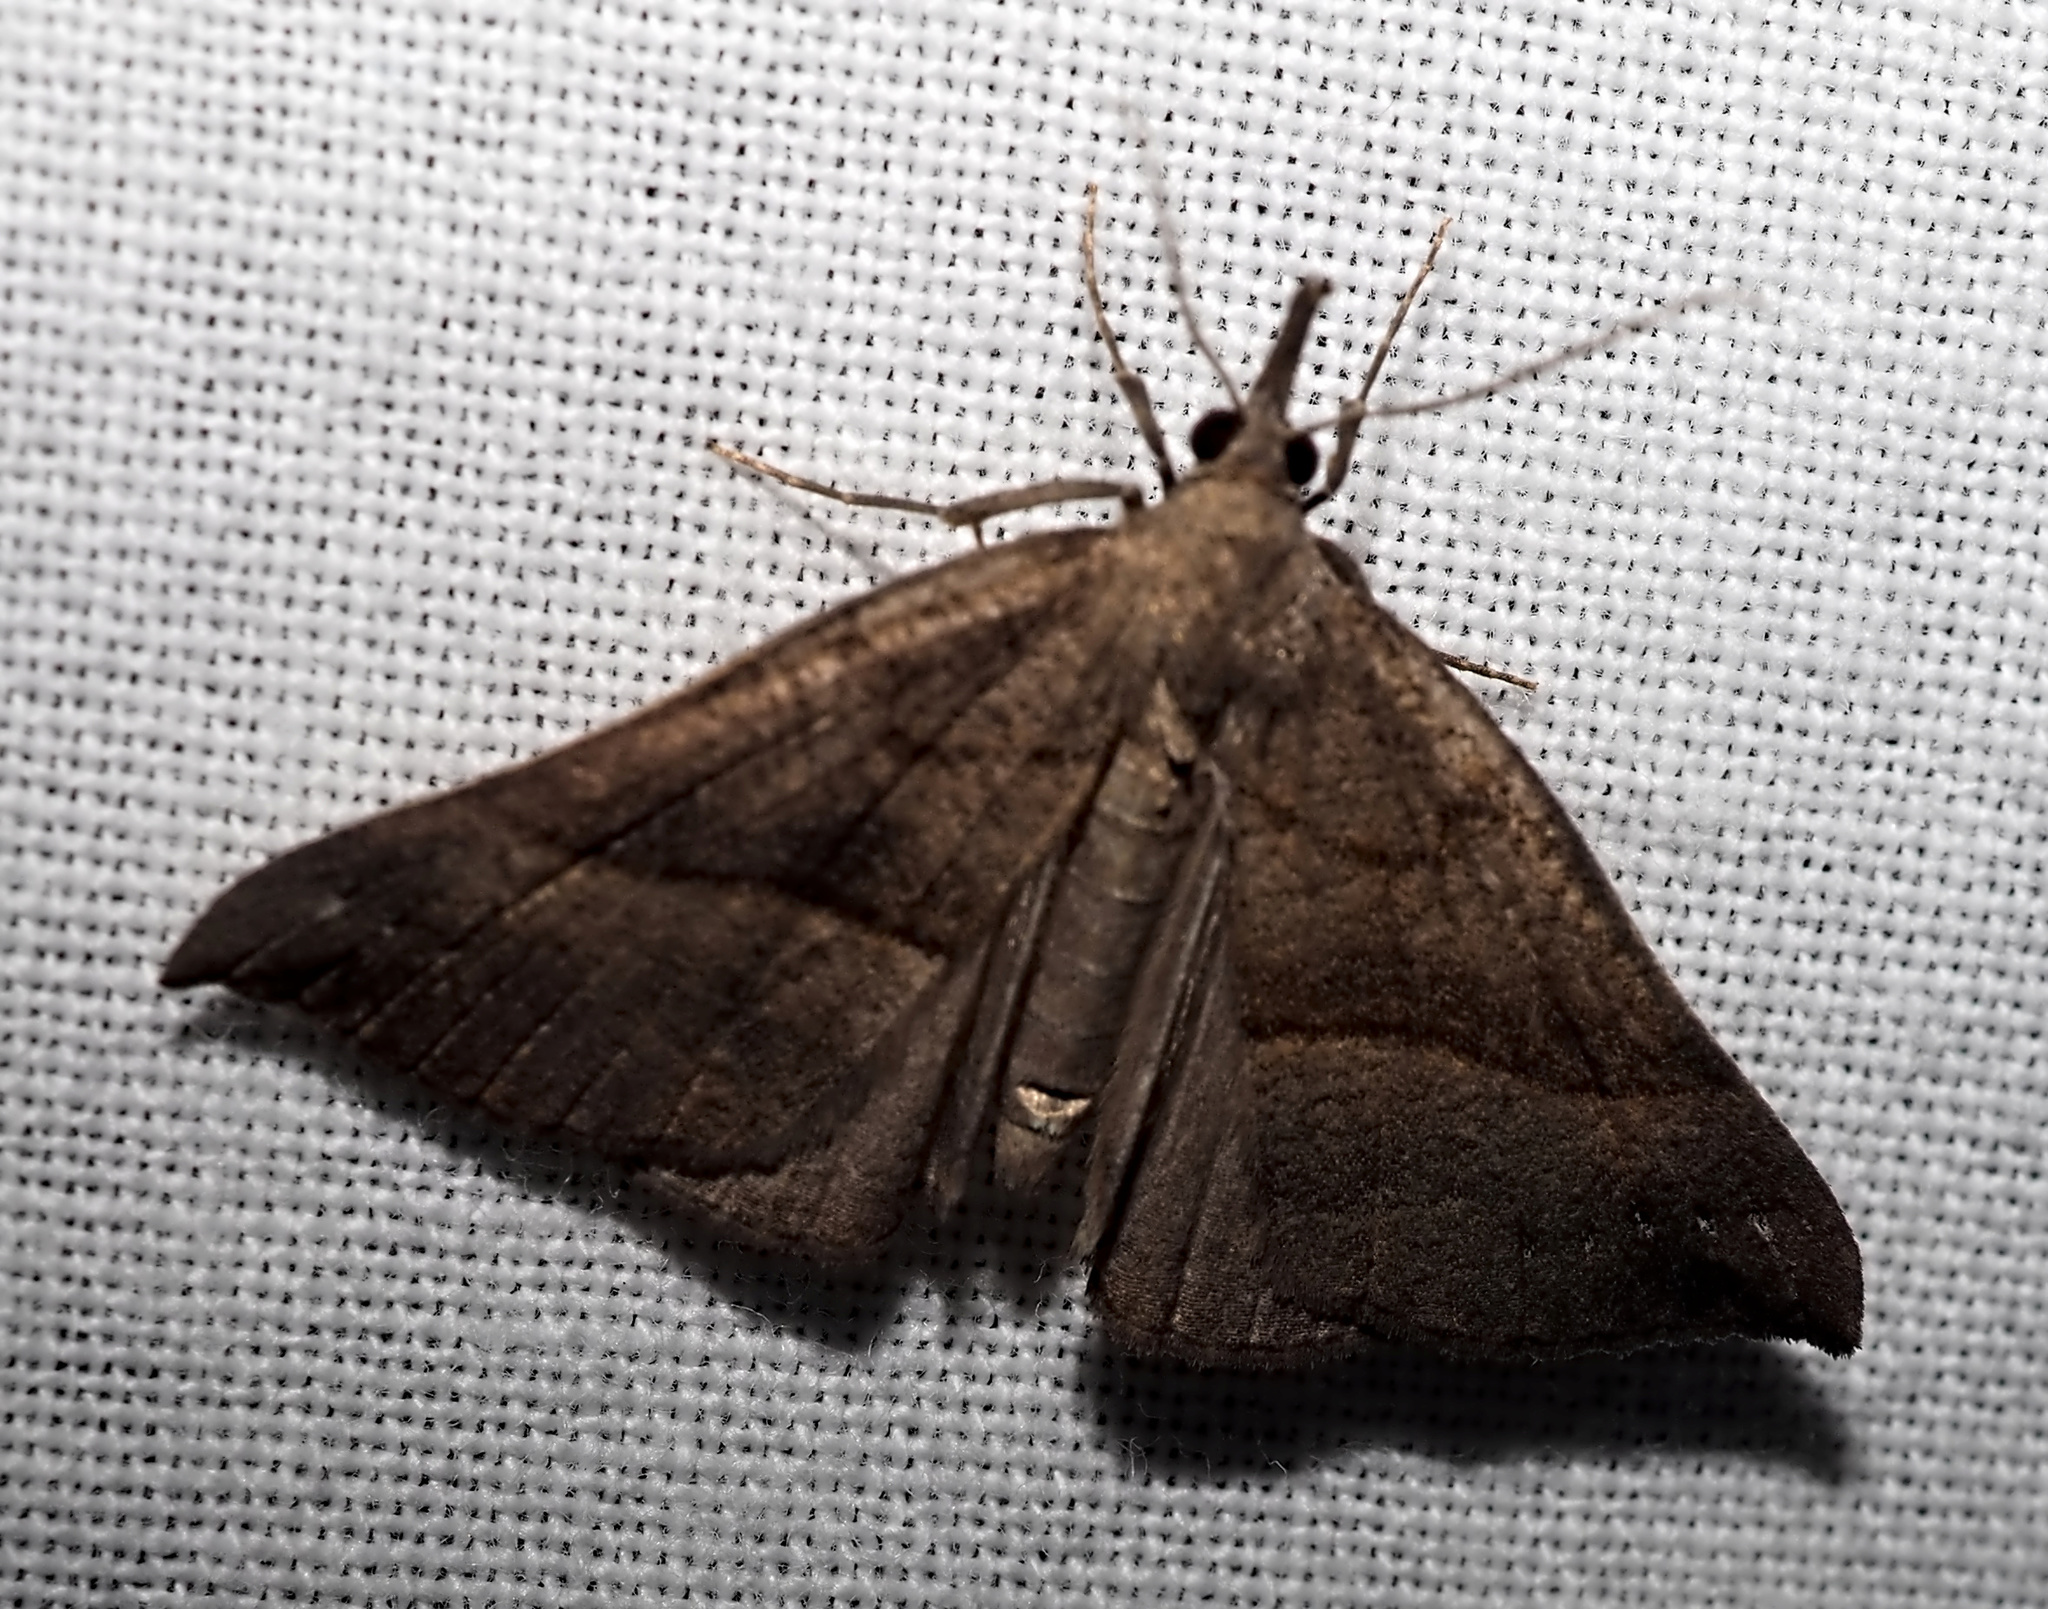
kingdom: Animalia
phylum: Arthropoda
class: Insecta
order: Lepidoptera
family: Erebidae
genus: Hypena
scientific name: Hypena proboscidalis
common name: Snout
